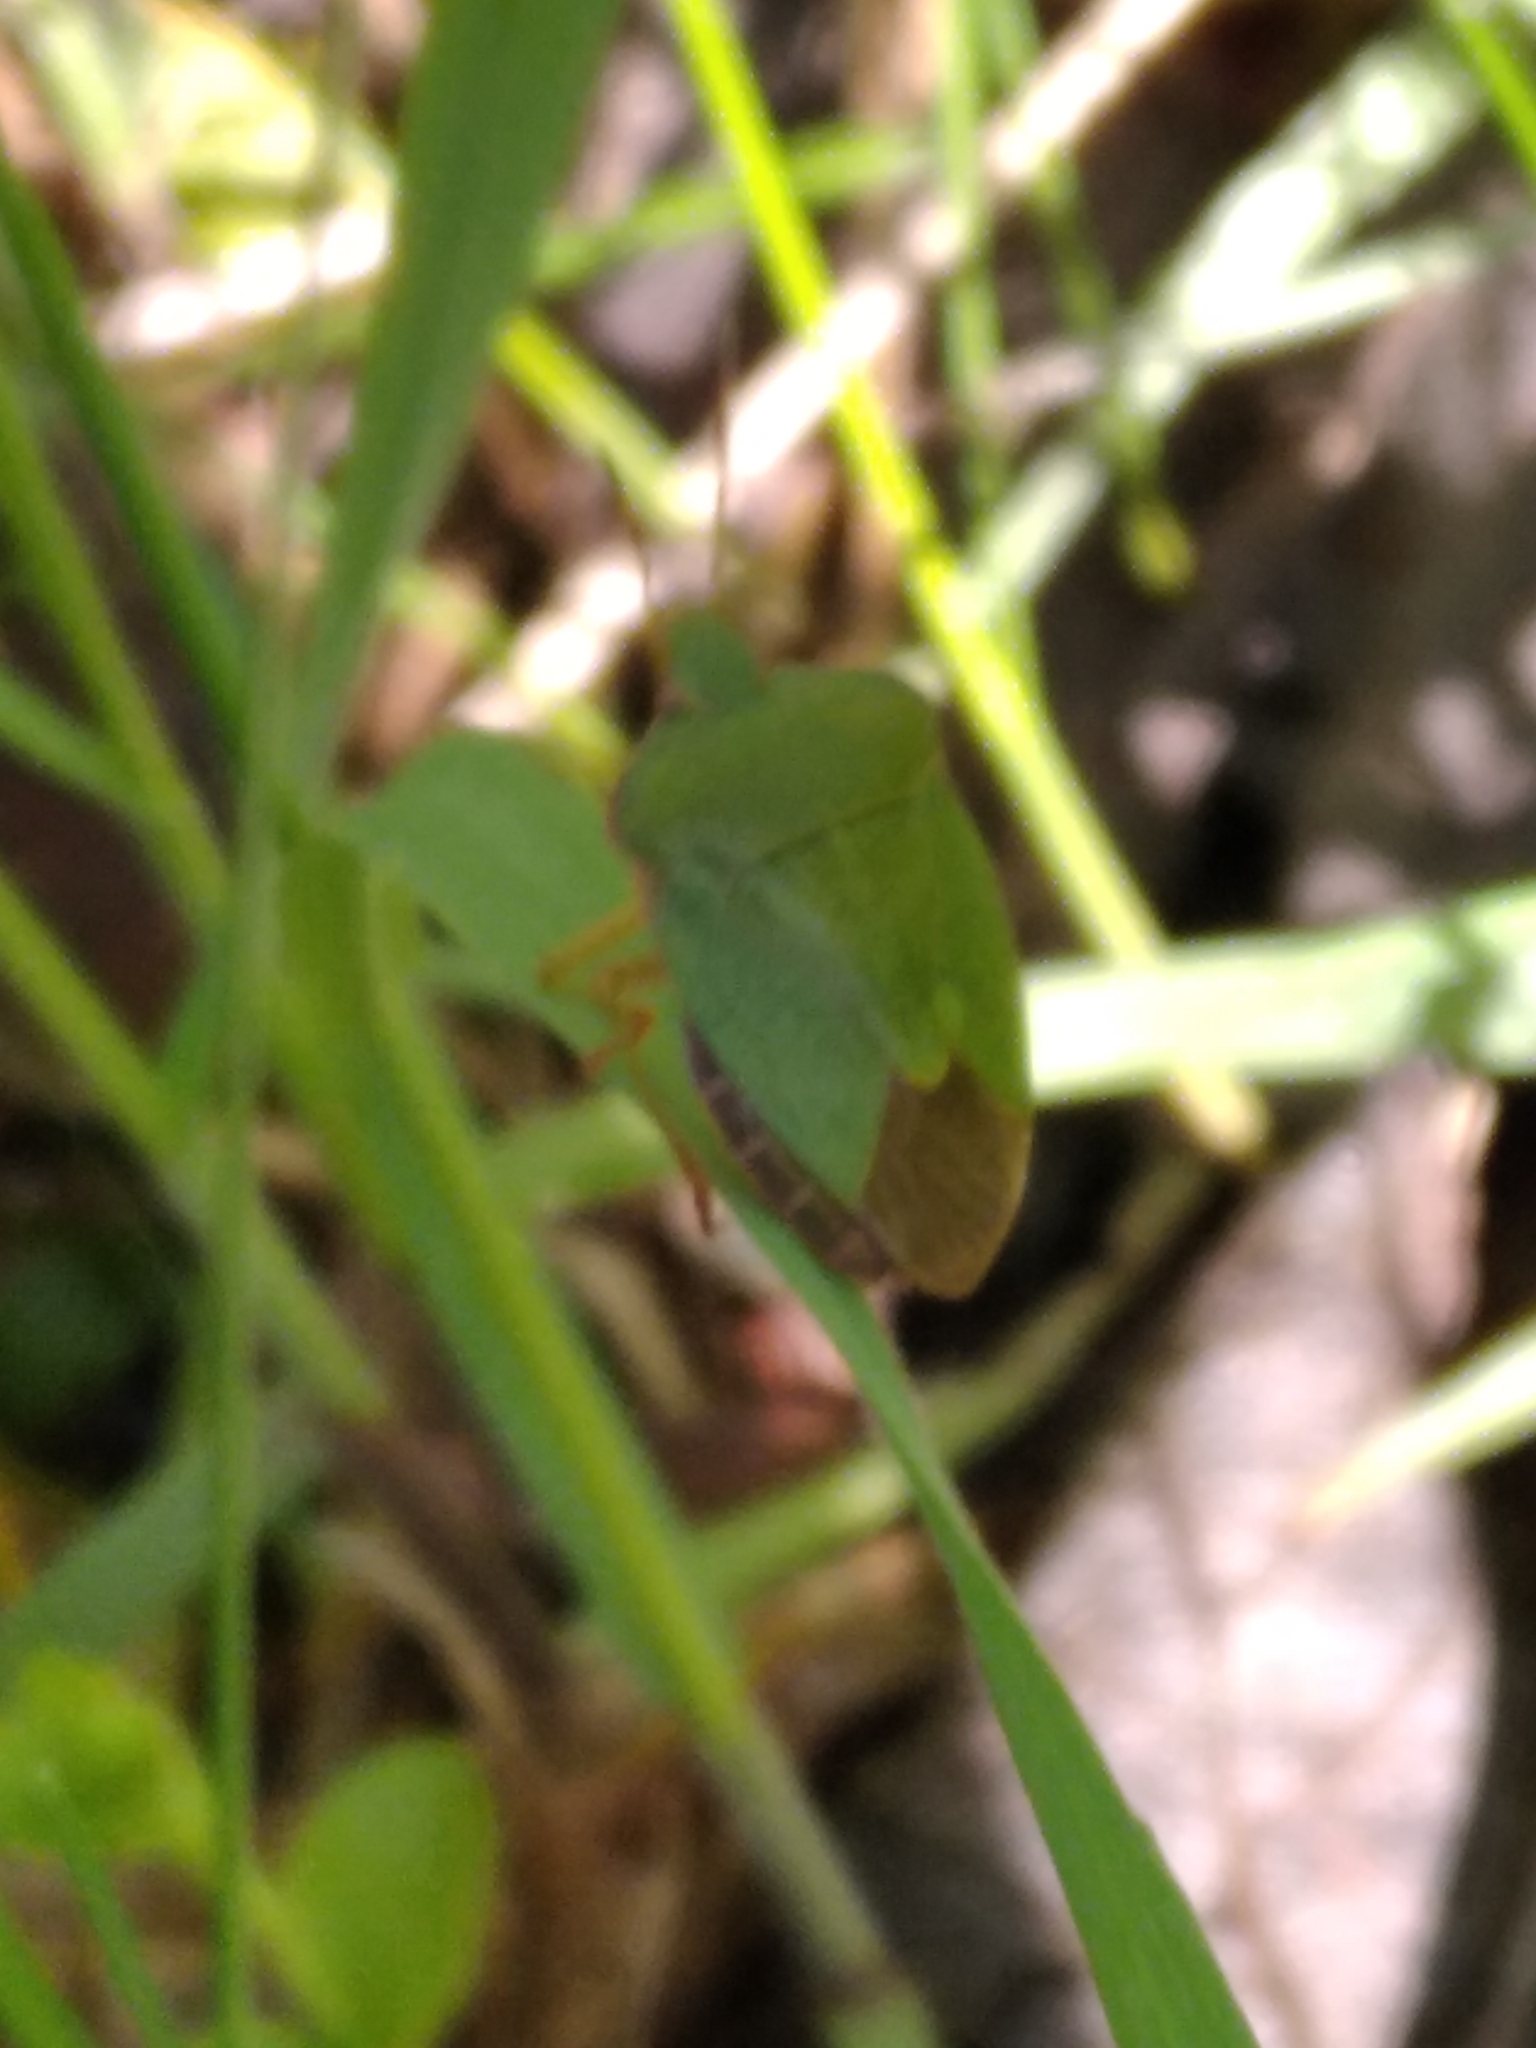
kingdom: Animalia
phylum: Arthropoda
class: Insecta
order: Hemiptera
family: Pentatomidae
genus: Palomena
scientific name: Palomena prasina
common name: Green shieldbug
